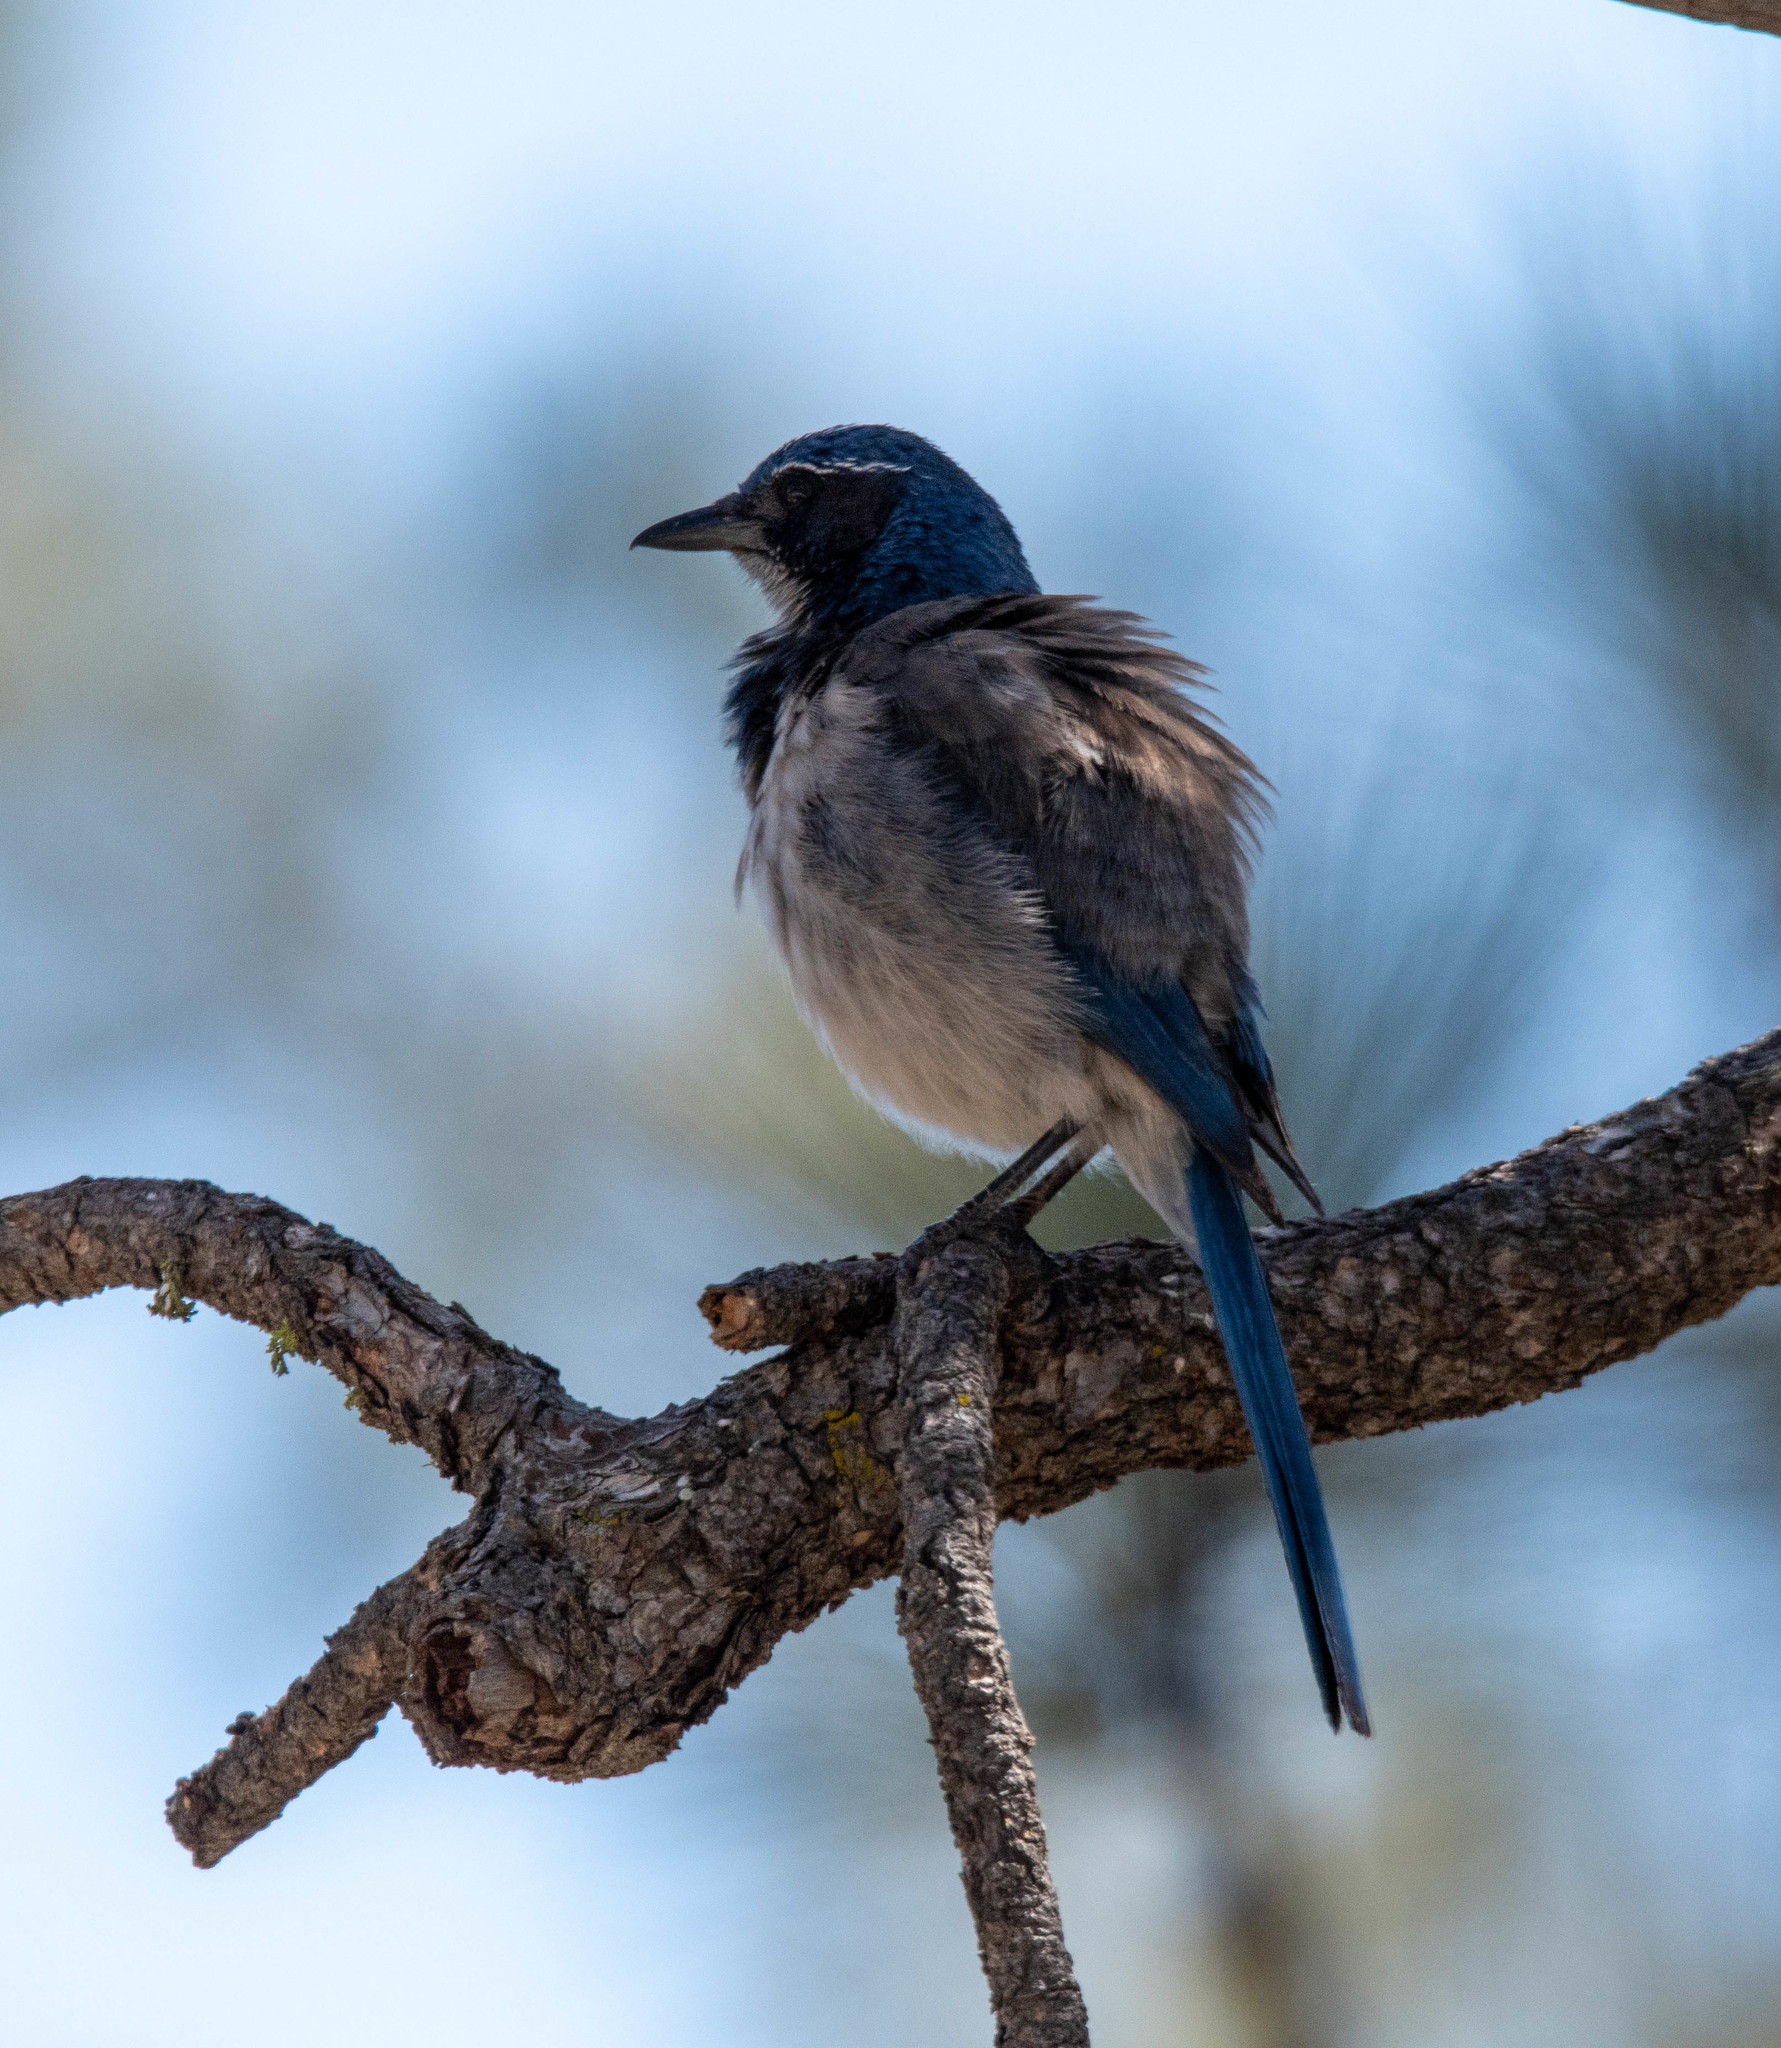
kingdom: Animalia
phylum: Chordata
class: Aves
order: Passeriformes
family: Corvidae
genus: Aphelocoma
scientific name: Aphelocoma californica
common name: California scrub-jay
